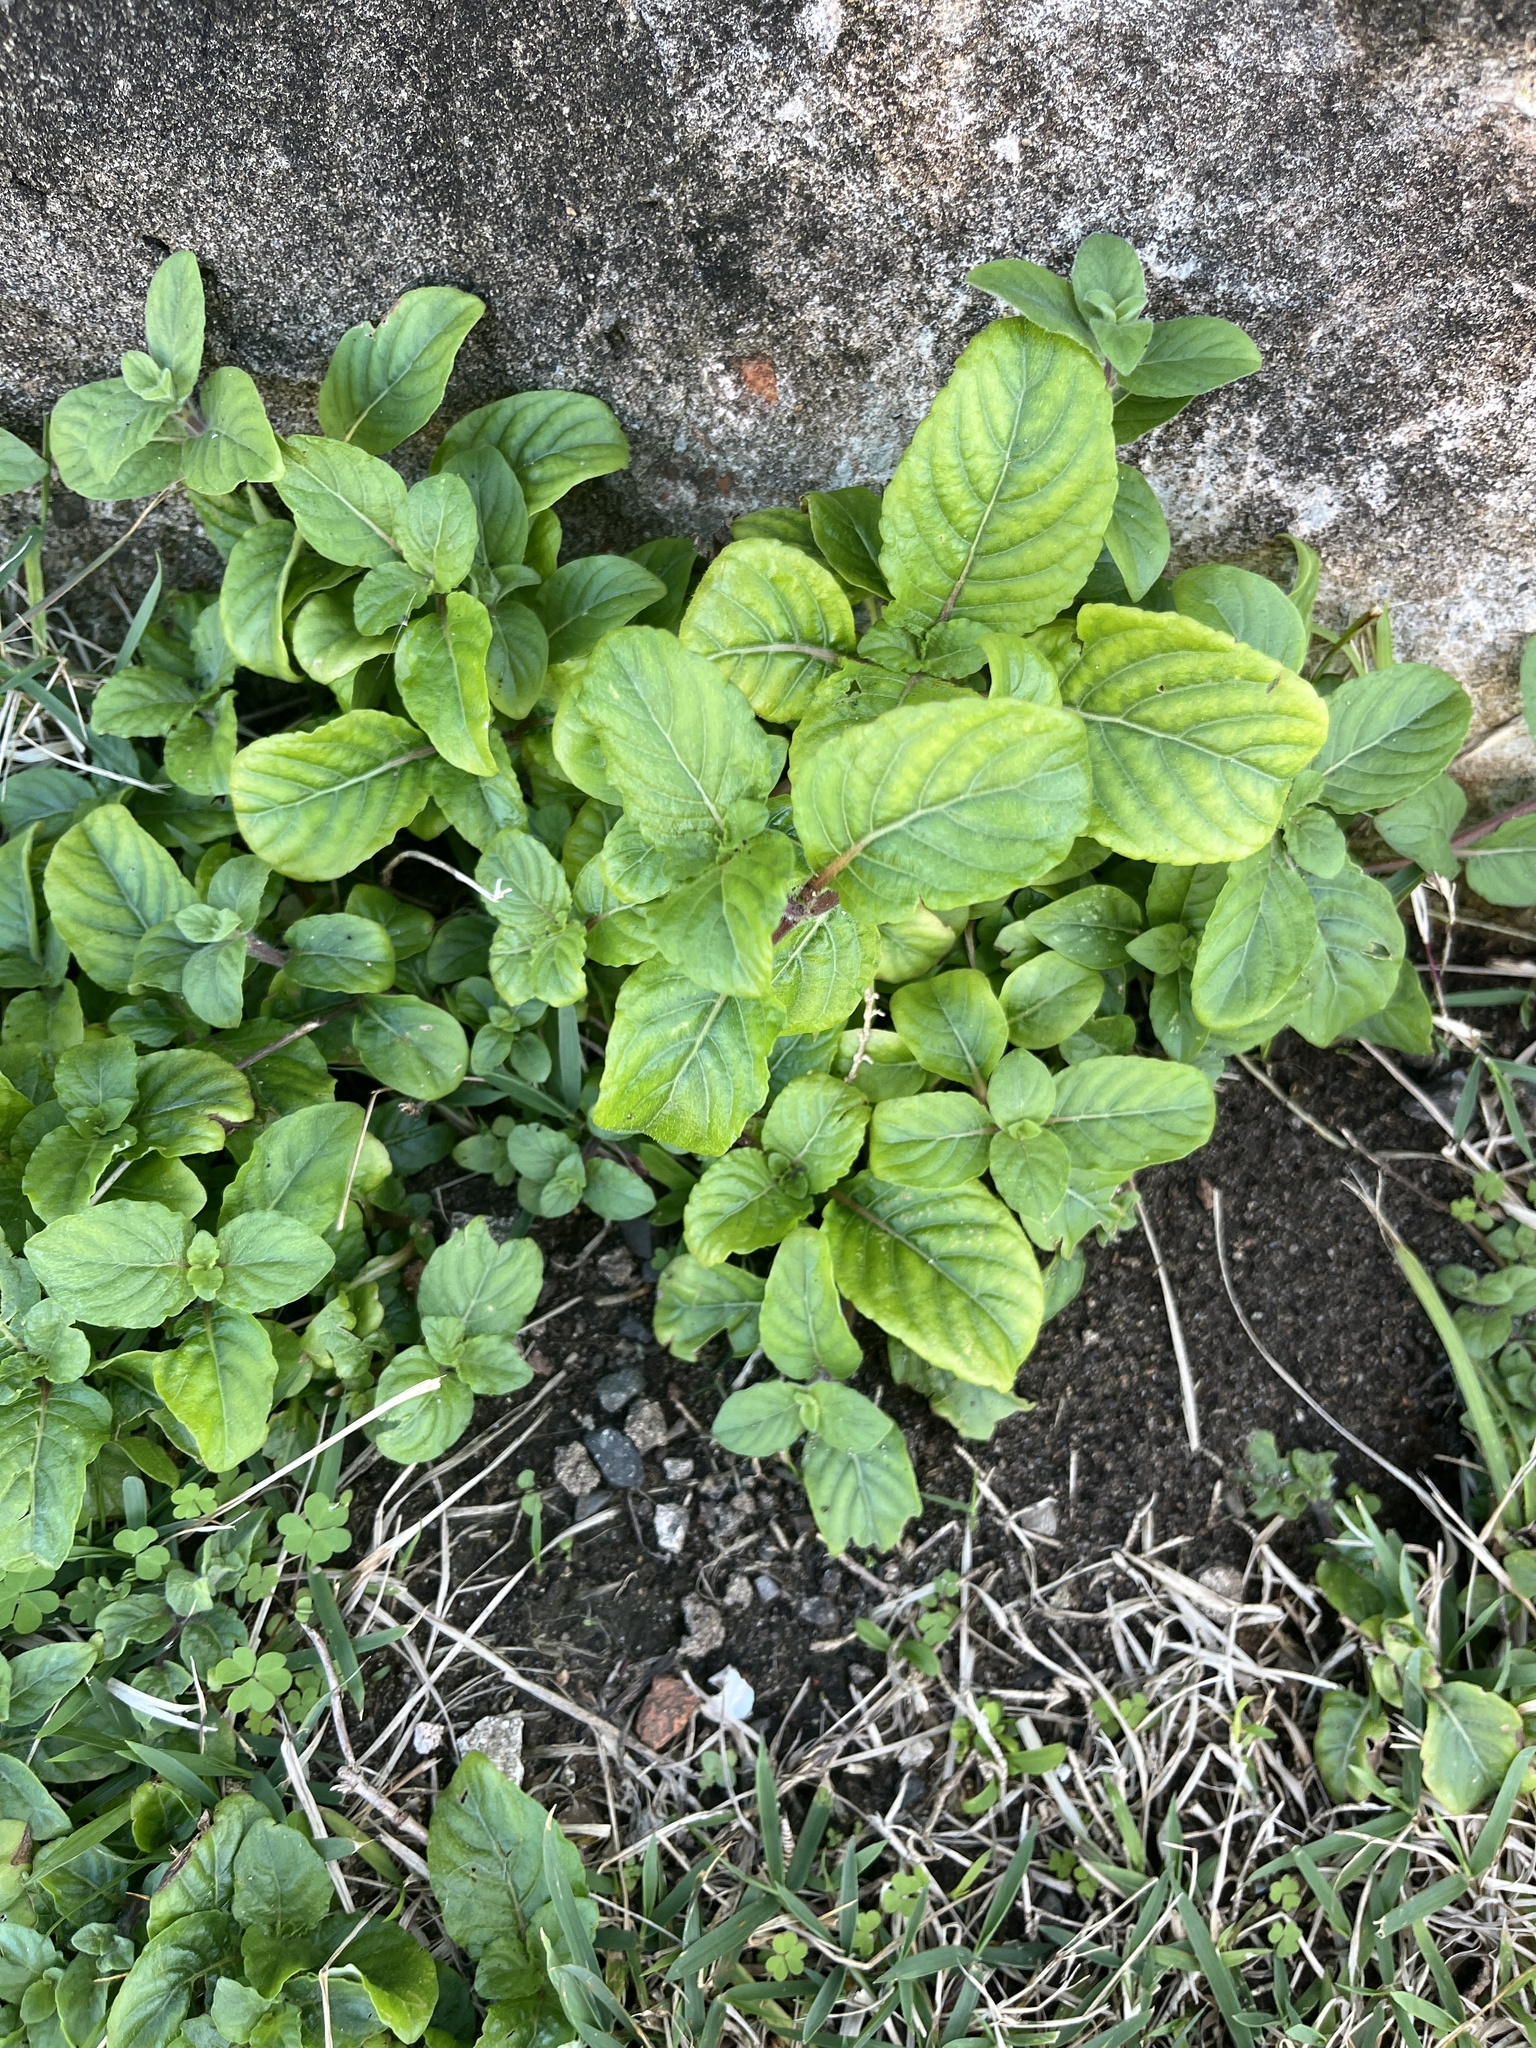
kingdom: Plantae
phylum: Tracheophyta
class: Magnoliopsida
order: Lamiales
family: Acanthaceae
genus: Ruellia
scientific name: Ruellia tuberosa
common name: Devil's bit
